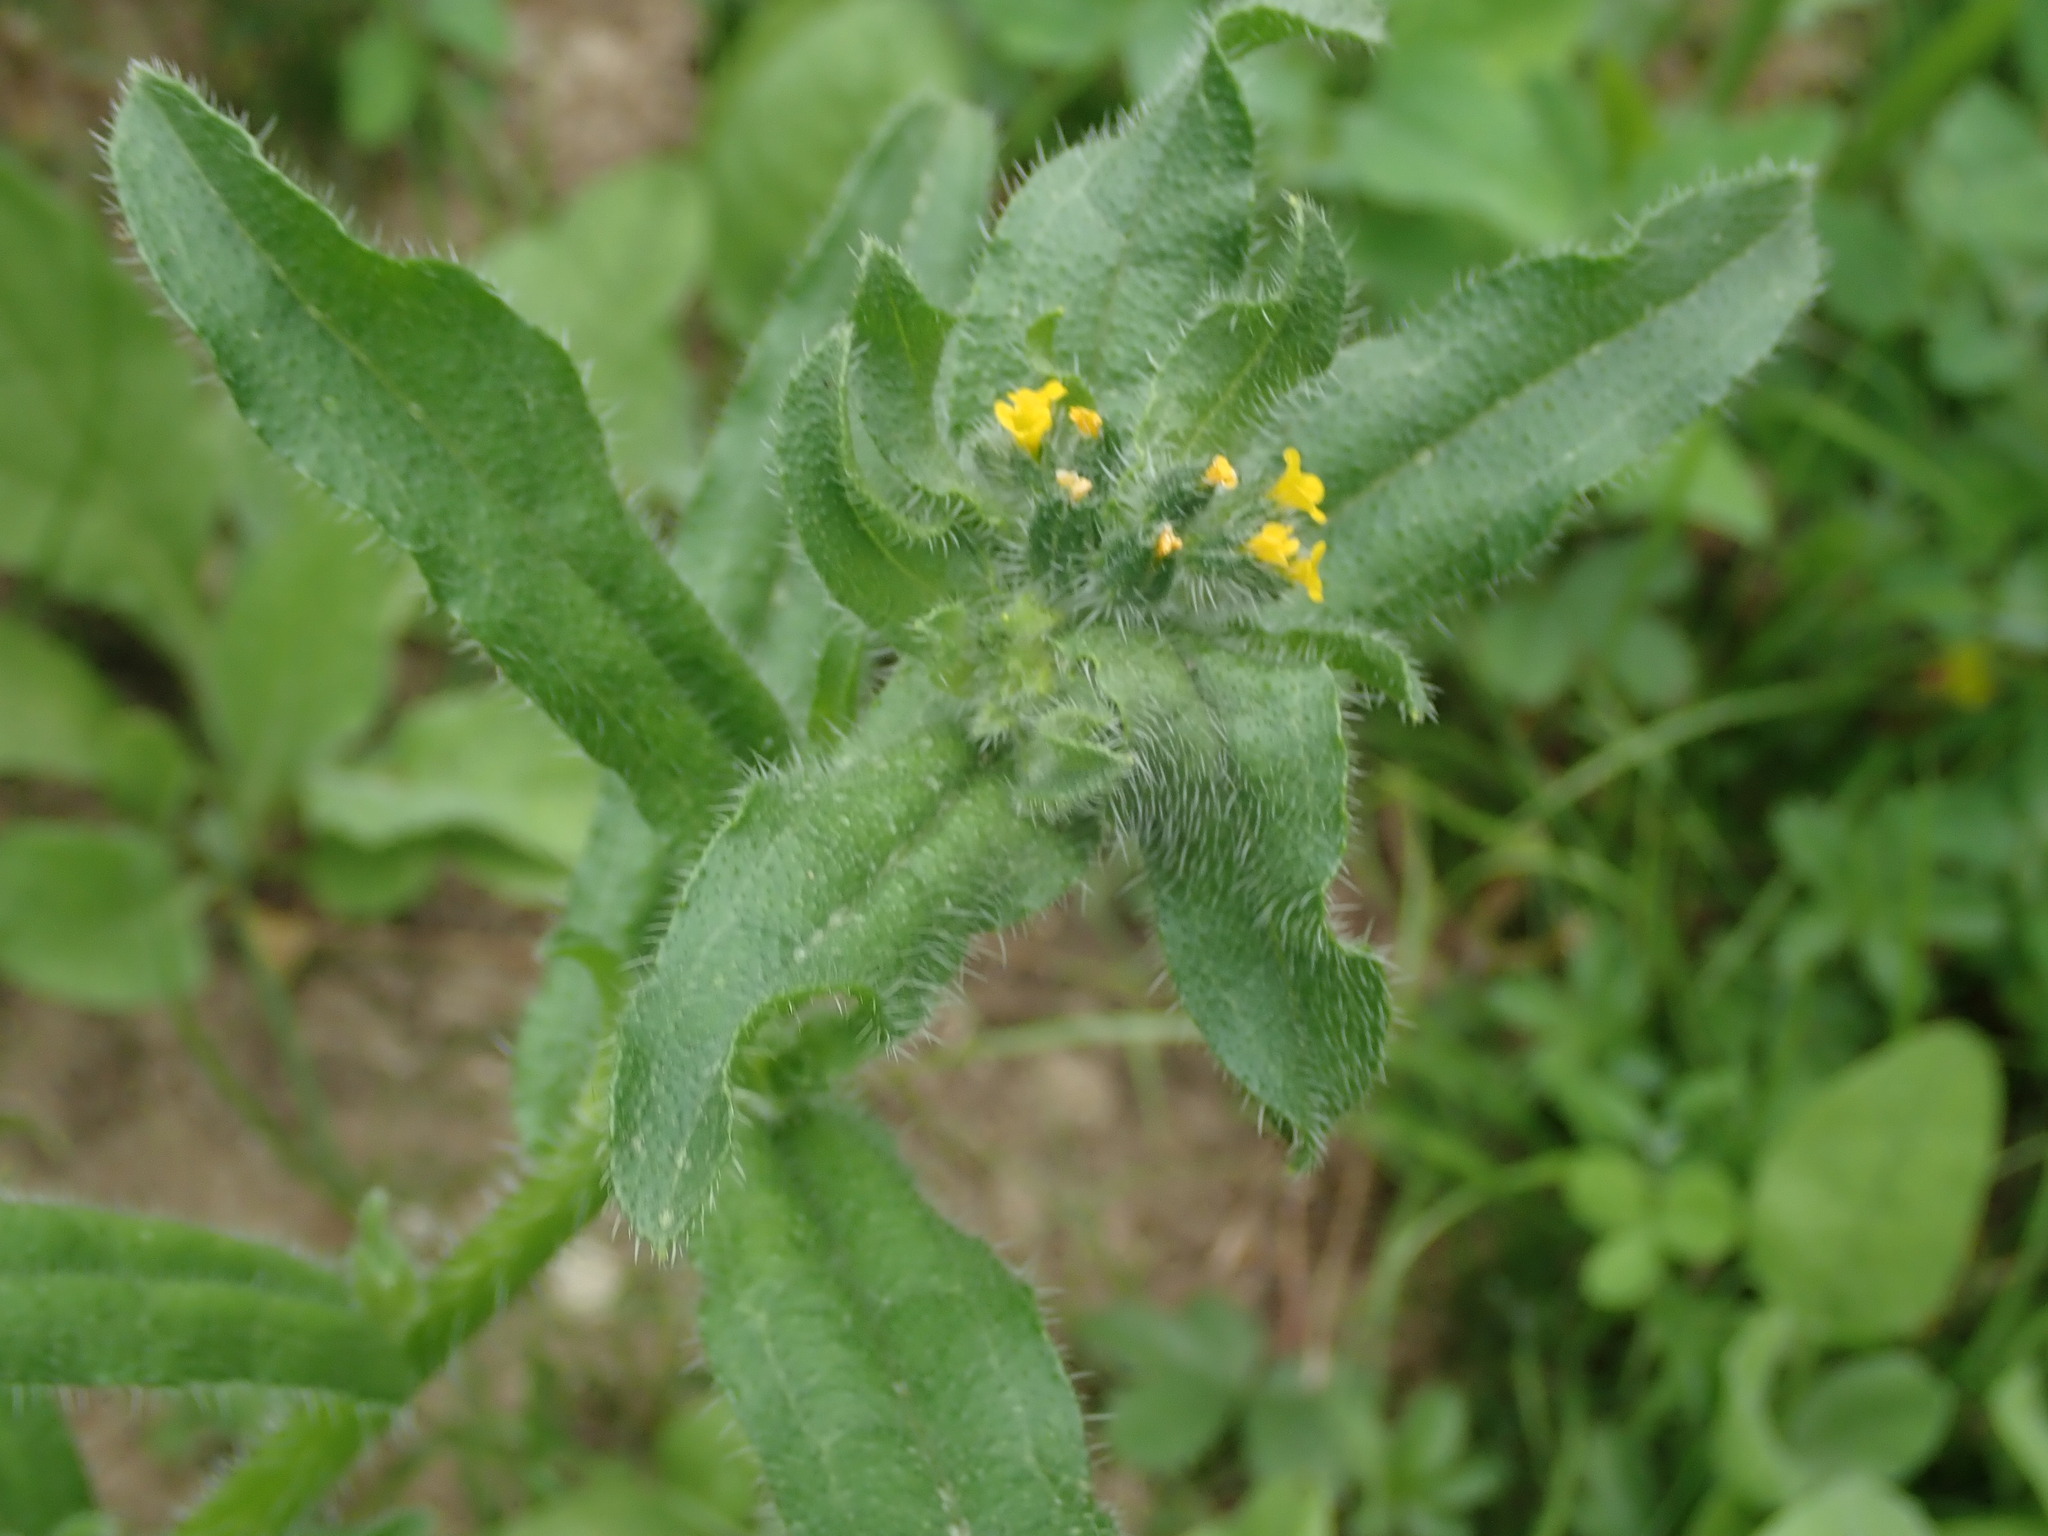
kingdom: Plantae
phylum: Tracheophyta
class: Magnoliopsida
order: Boraginales
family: Boraginaceae
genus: Amsinckia
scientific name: Amsinckia menziesii
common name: Menzies' fiddleneck
